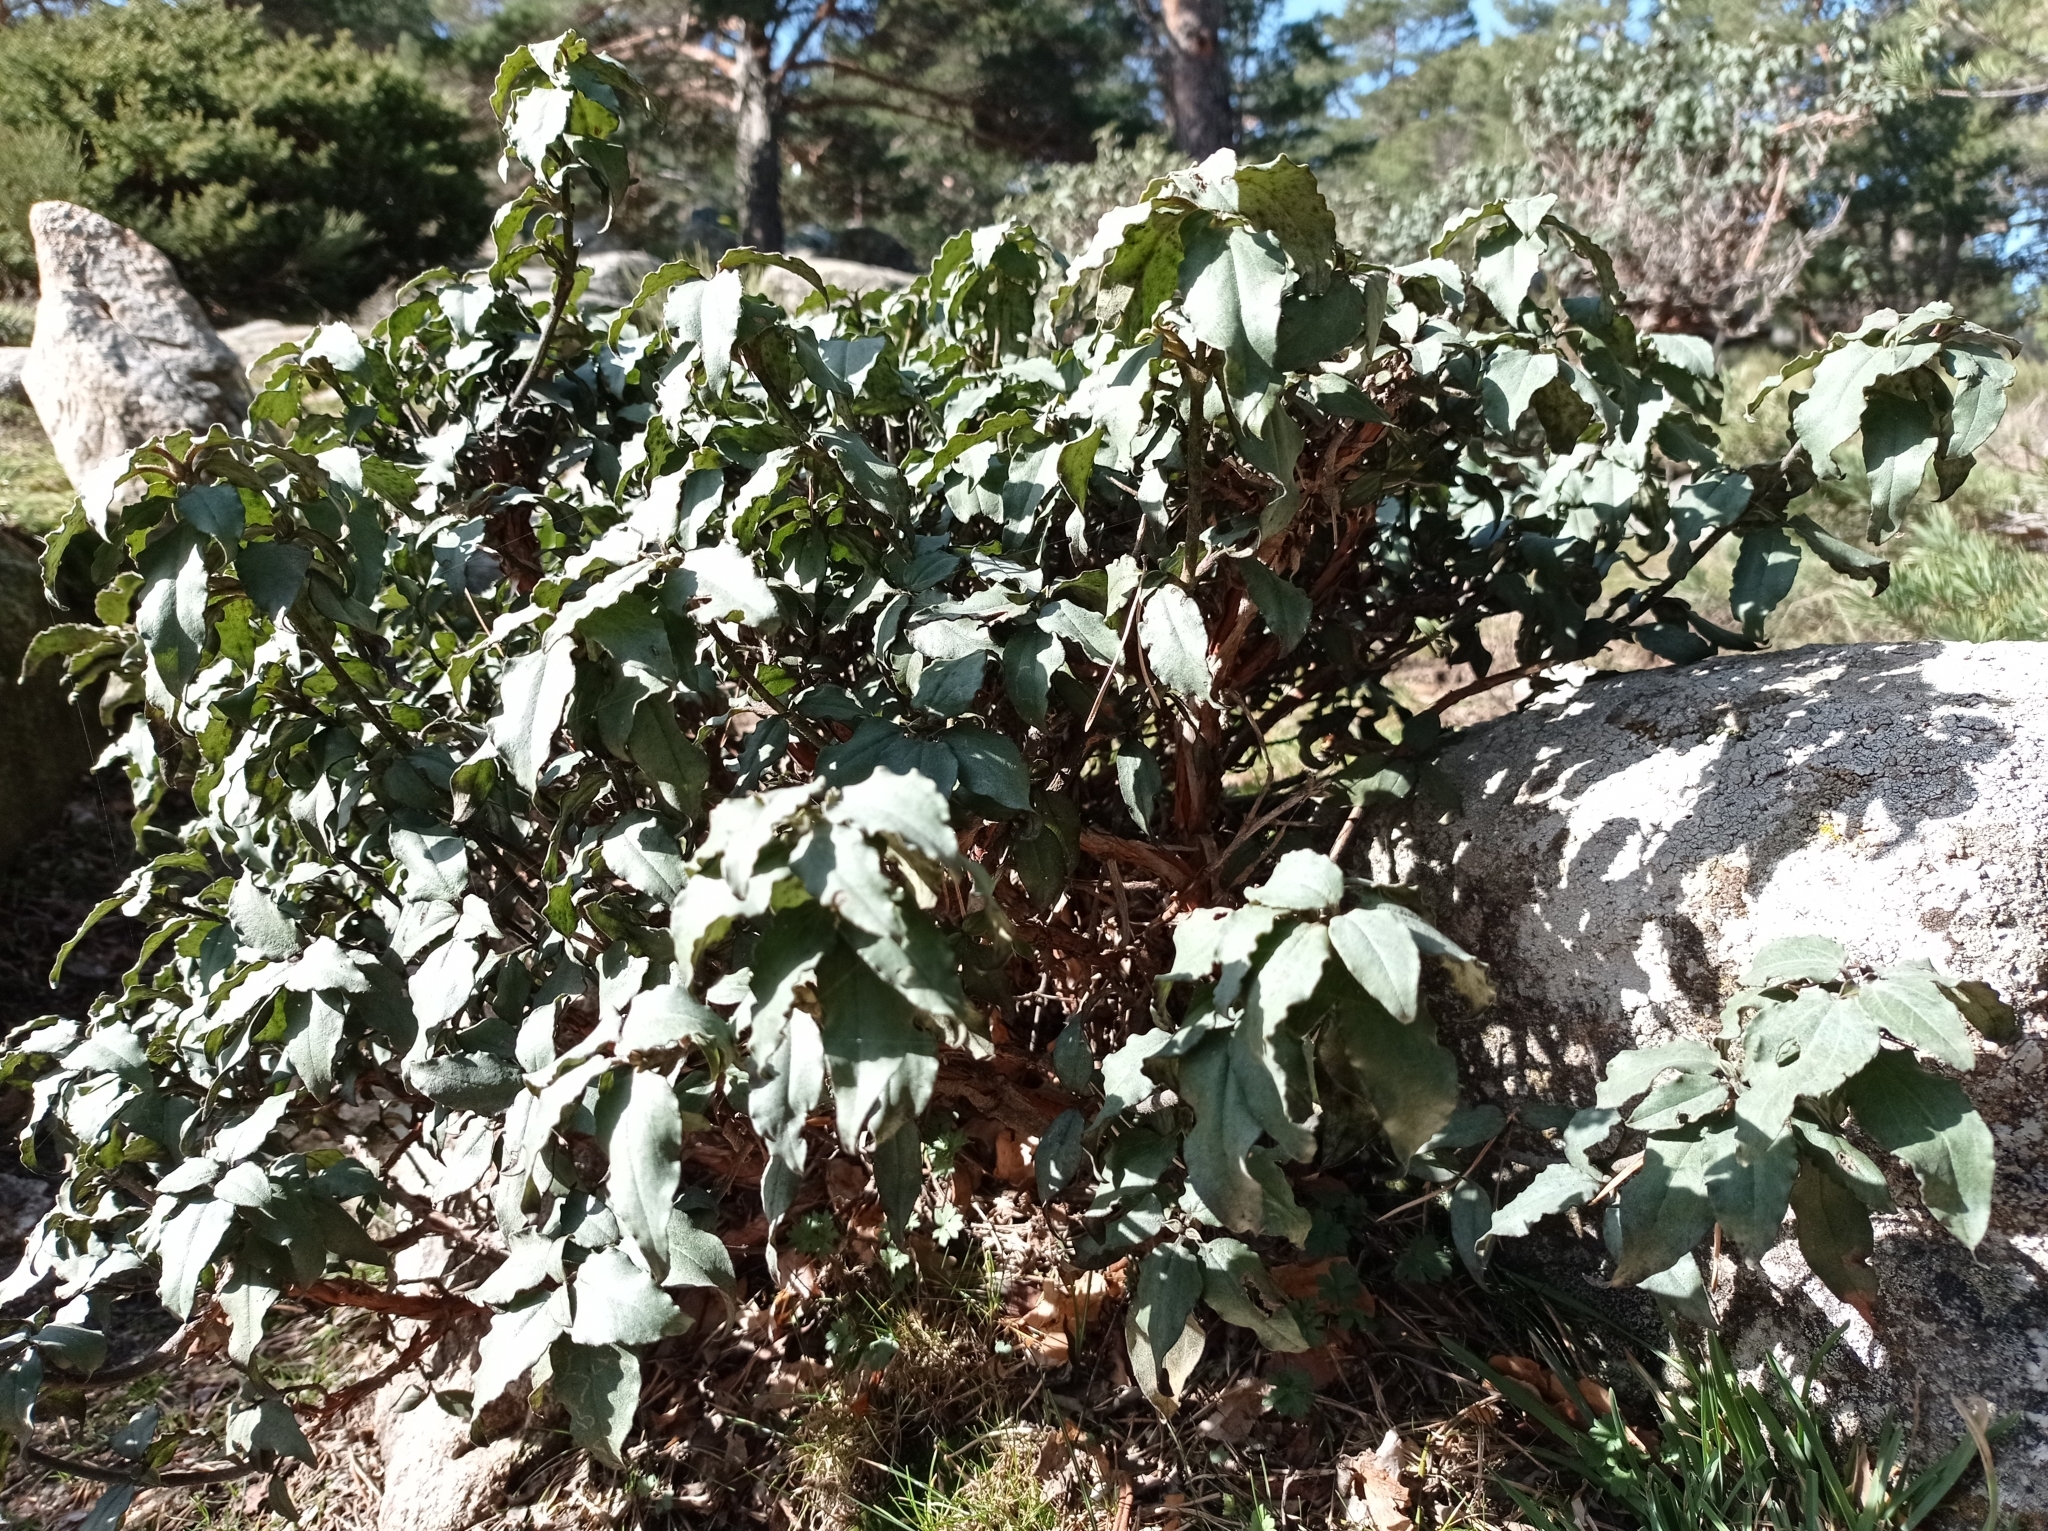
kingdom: Plantae
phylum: Tracheophyta
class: Magnoliopsida
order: Malvales
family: Cistaceae
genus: Cistus
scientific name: Cistus laurifolius
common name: Laurel-leaved cistus
